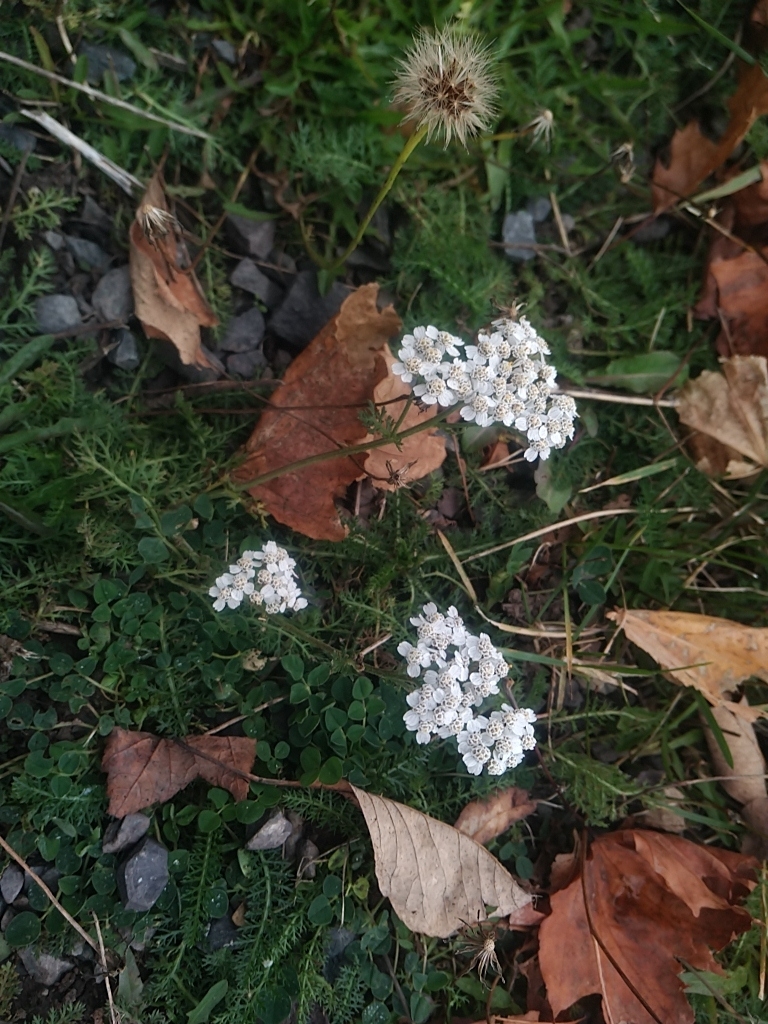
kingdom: Plantae
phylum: Tracheophyta
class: Magnoliopsida
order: Asterales
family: Asteraceae
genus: Achillea
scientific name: Achillea millefolium
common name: Yarrow
